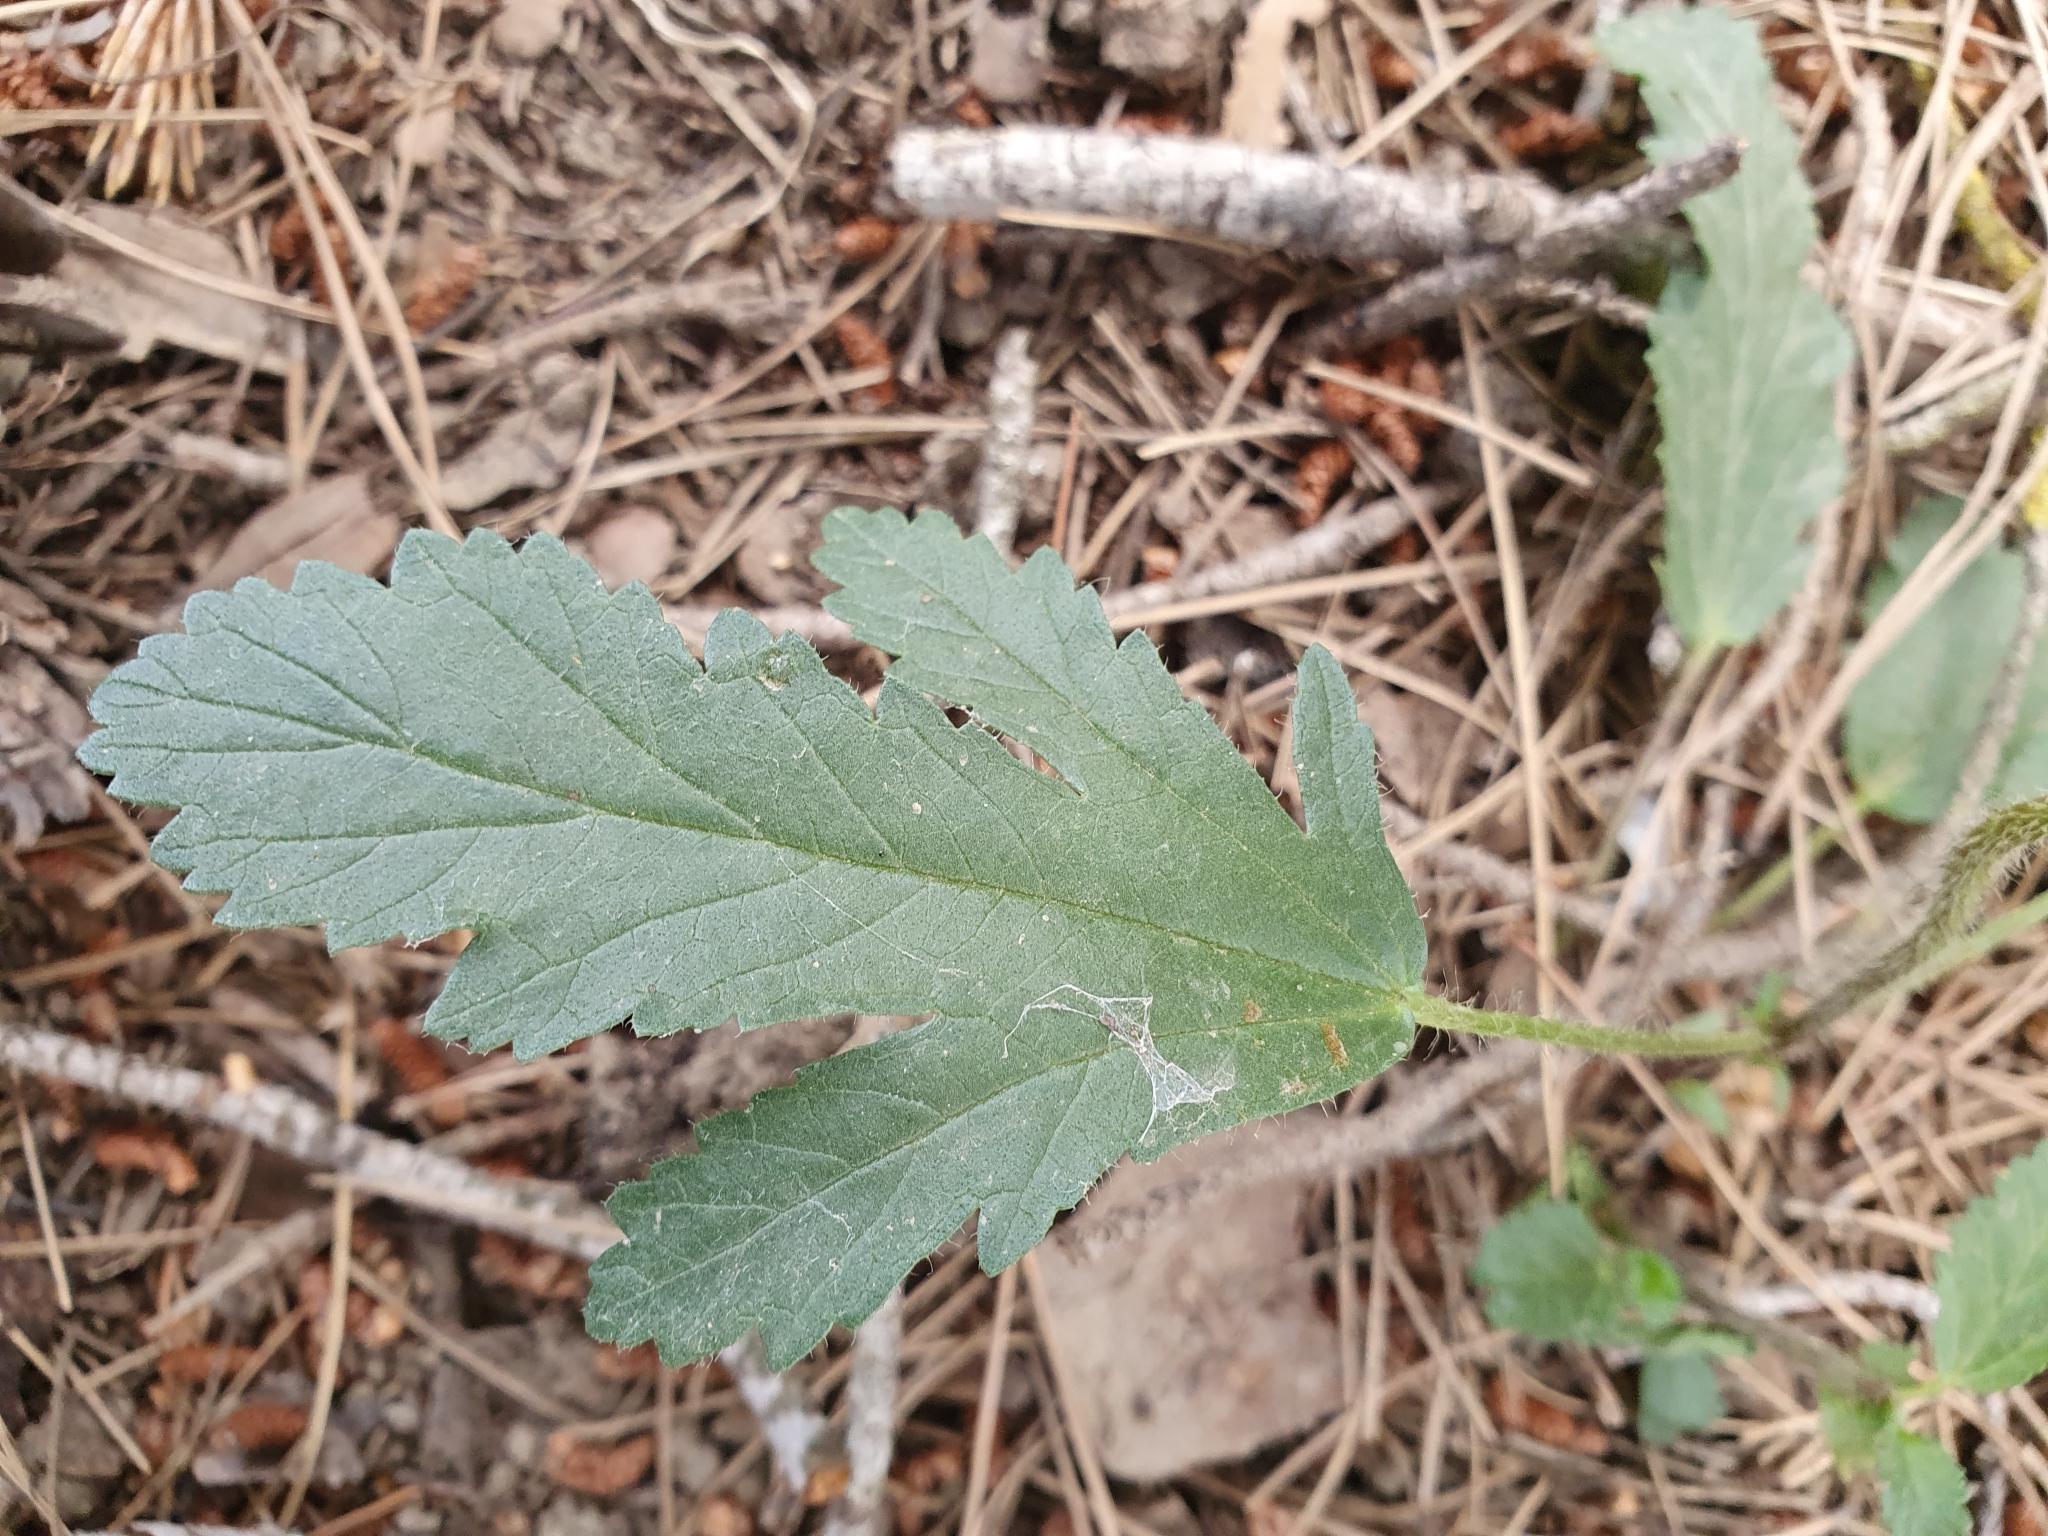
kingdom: Plantae
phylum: Tracheophyta
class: Magnoliopsida
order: Malvales
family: Malvaceae
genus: Malope
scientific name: Malope malacoides
